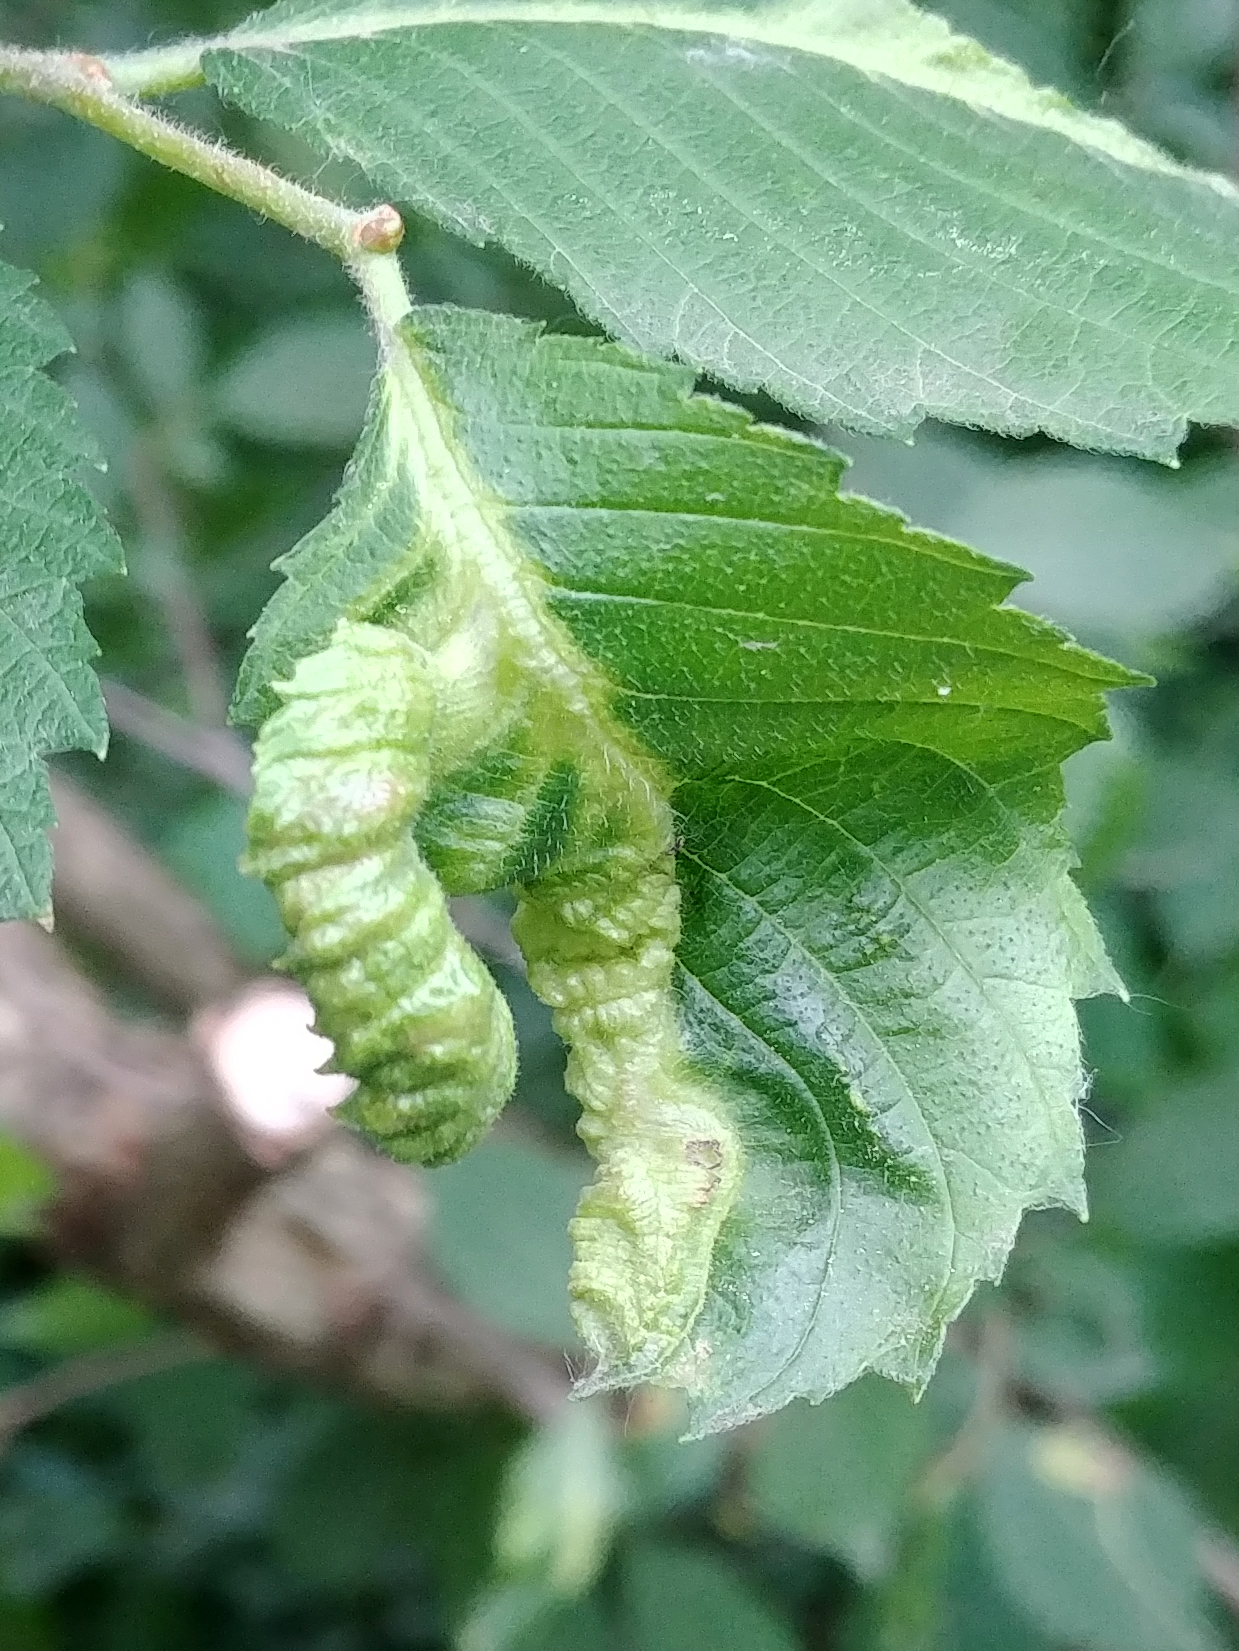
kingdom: Animalia
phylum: Arthropoda
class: Insecta
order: Hemiptera
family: Aphididae
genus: Colopha
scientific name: Colopha ulmicola
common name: Elm cockscombgall aphid
